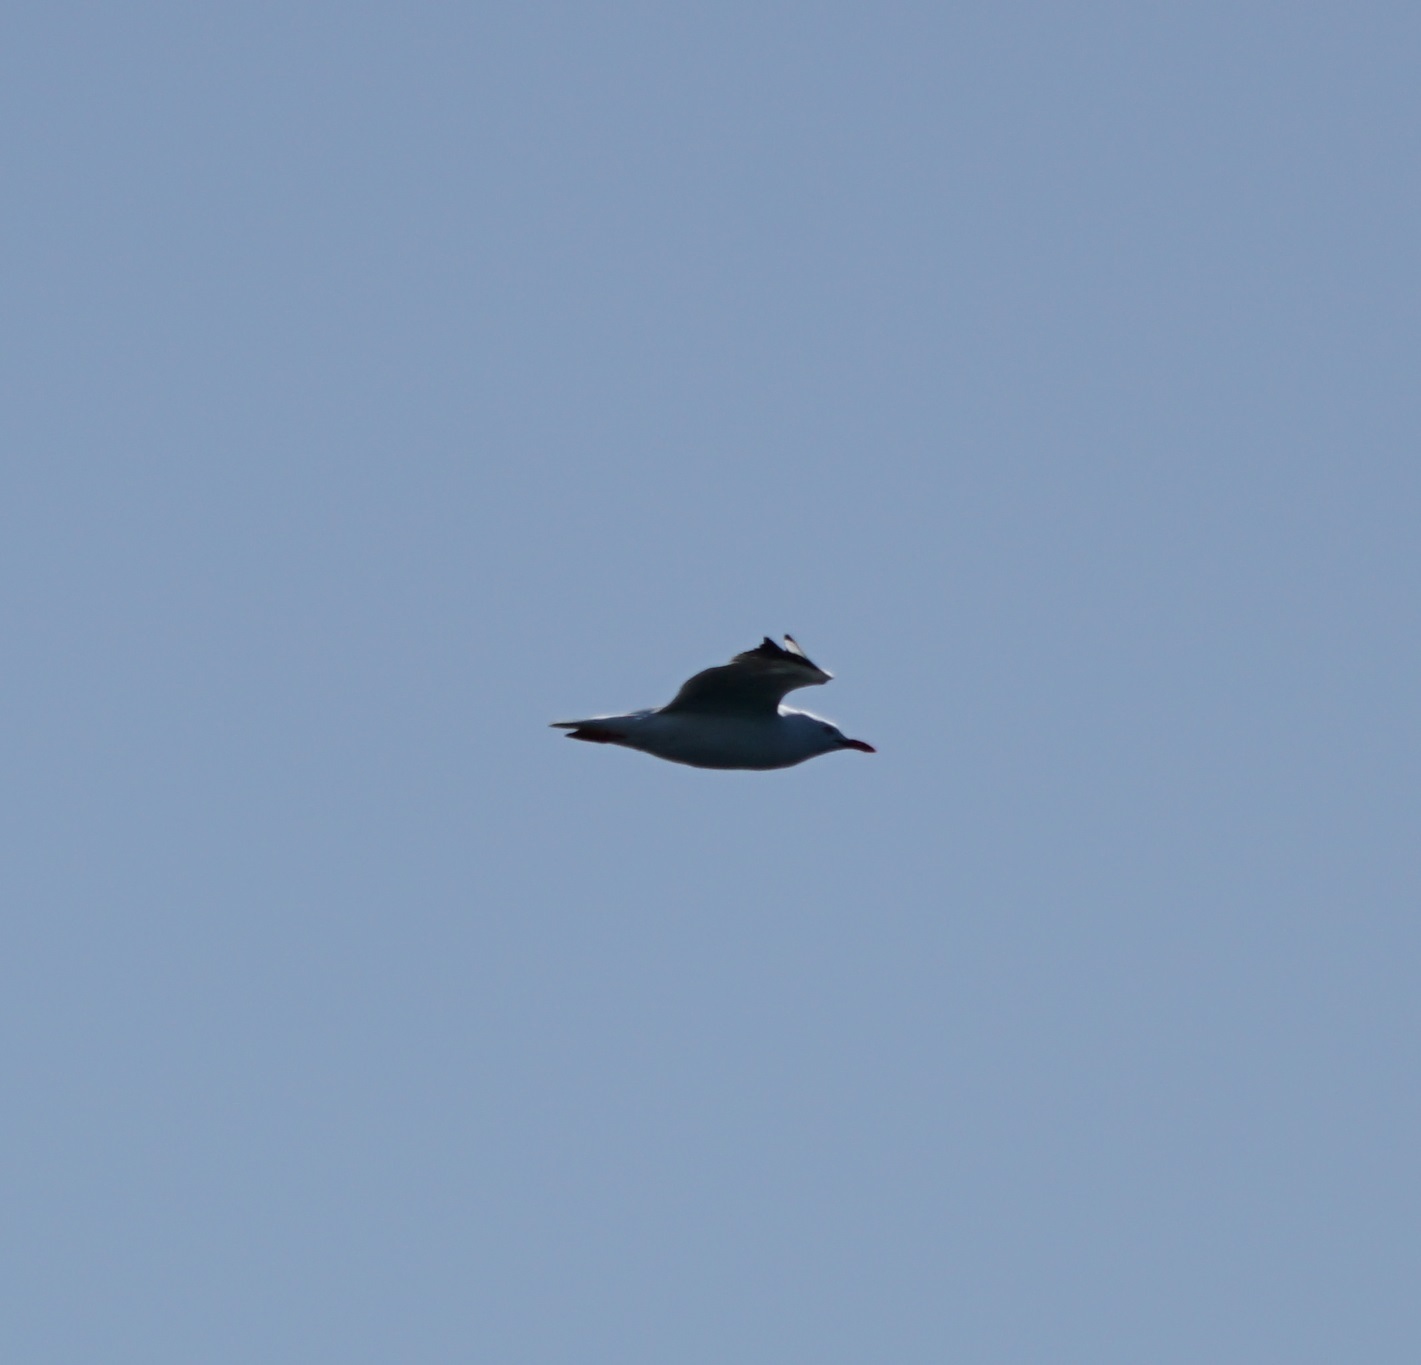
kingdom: Animalia
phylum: Chordata
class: Aves
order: Charadriiformes
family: Laridae
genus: Chroicocephalus
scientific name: Chroicocephalus novaehollandiae
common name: Silver gull
